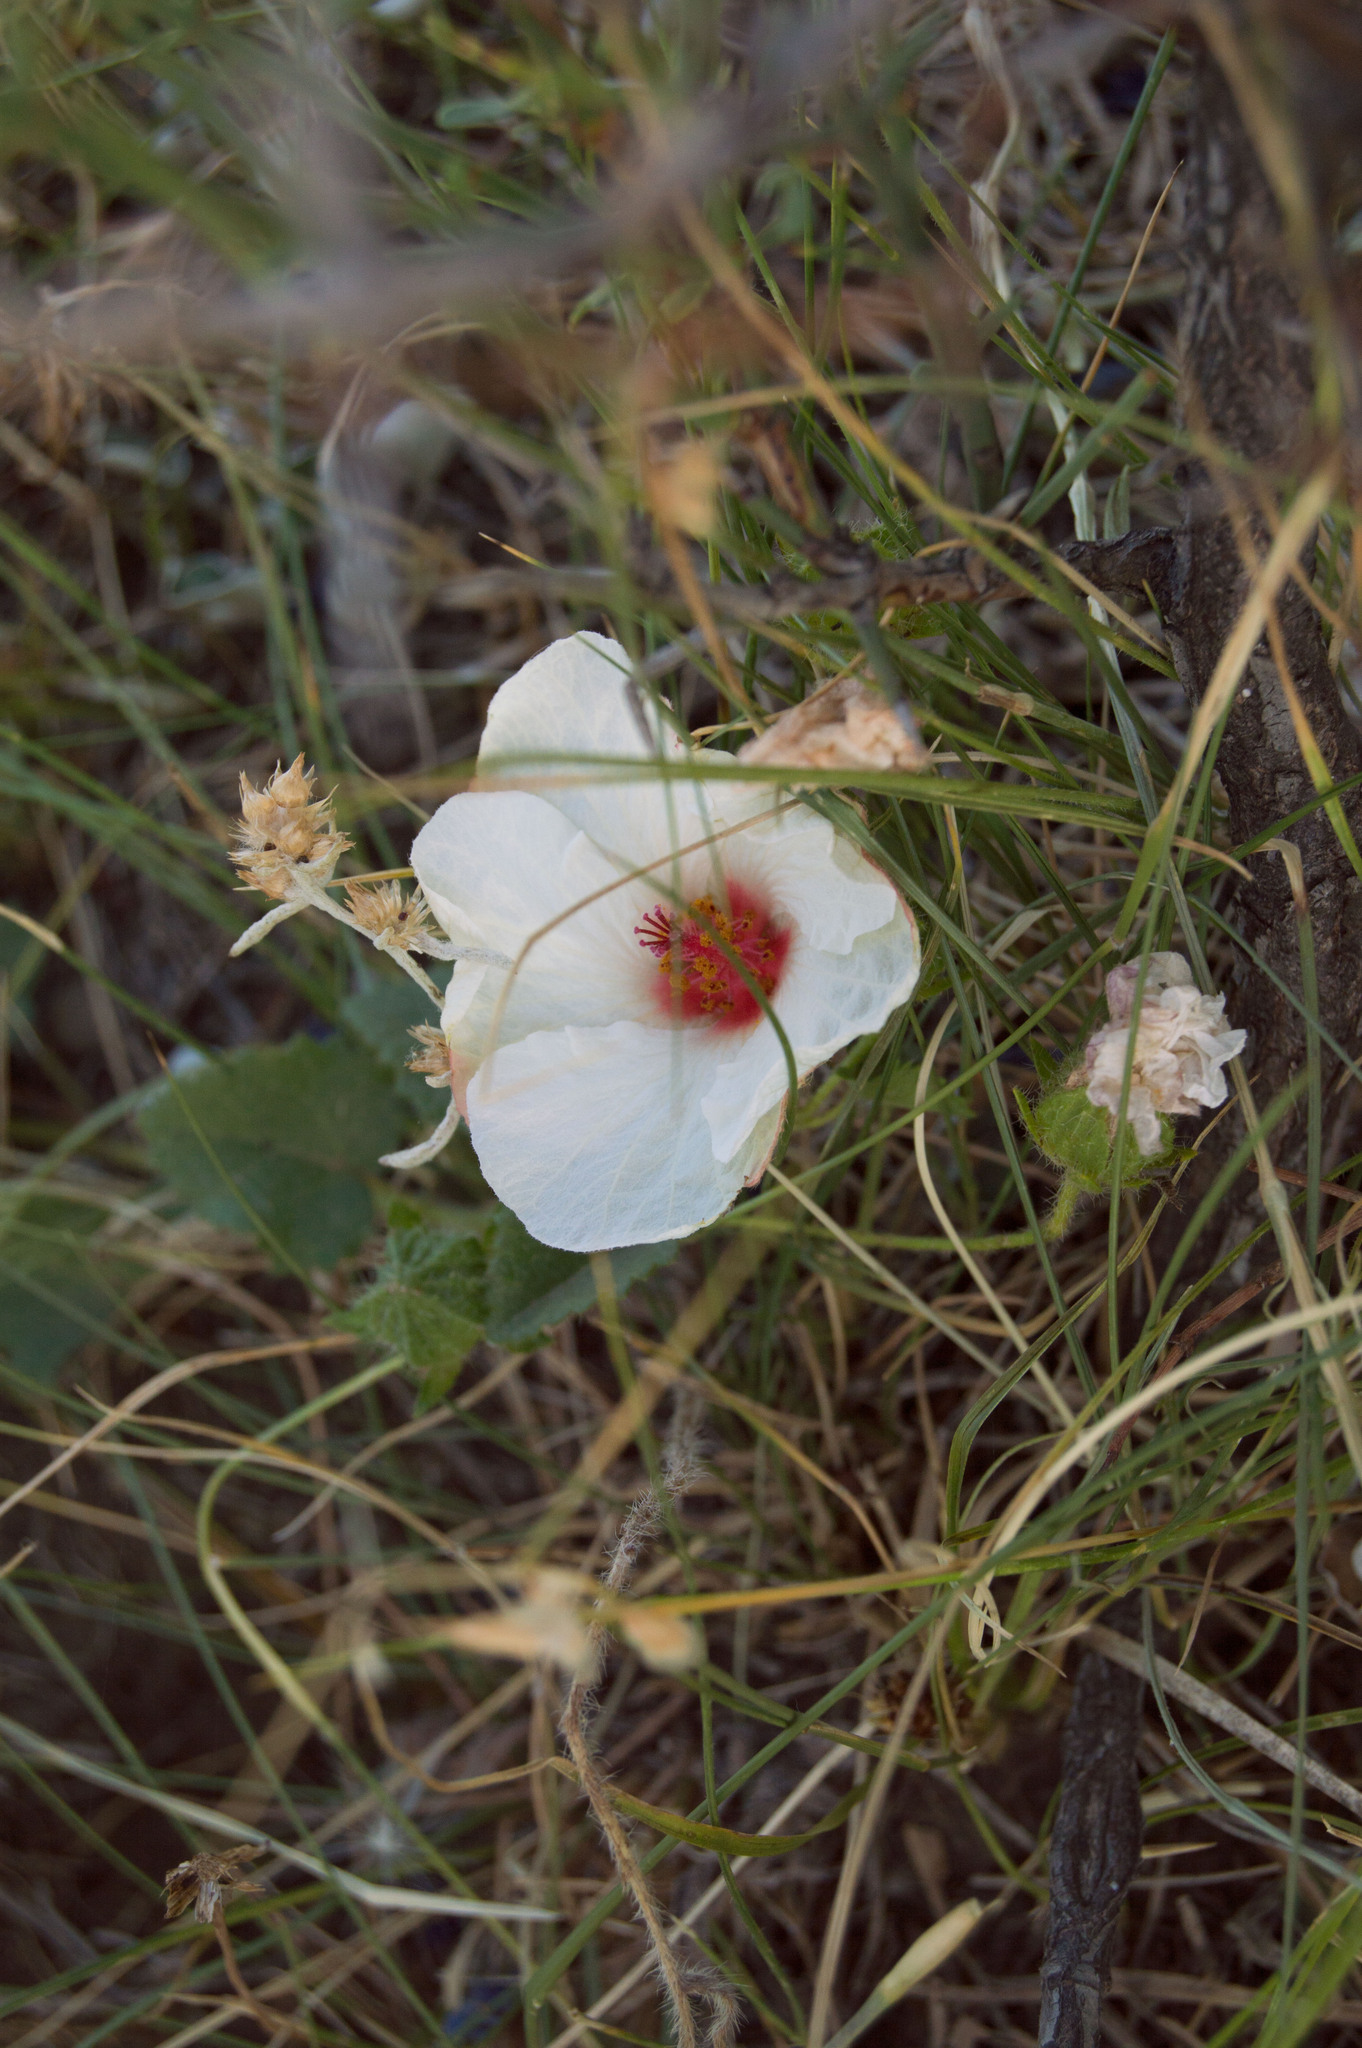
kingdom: Plantae
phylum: Tracheophyta
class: Magnoliopsida
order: Malvales
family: Malvaceae
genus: Pavonia
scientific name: Pavonia glechomoides
